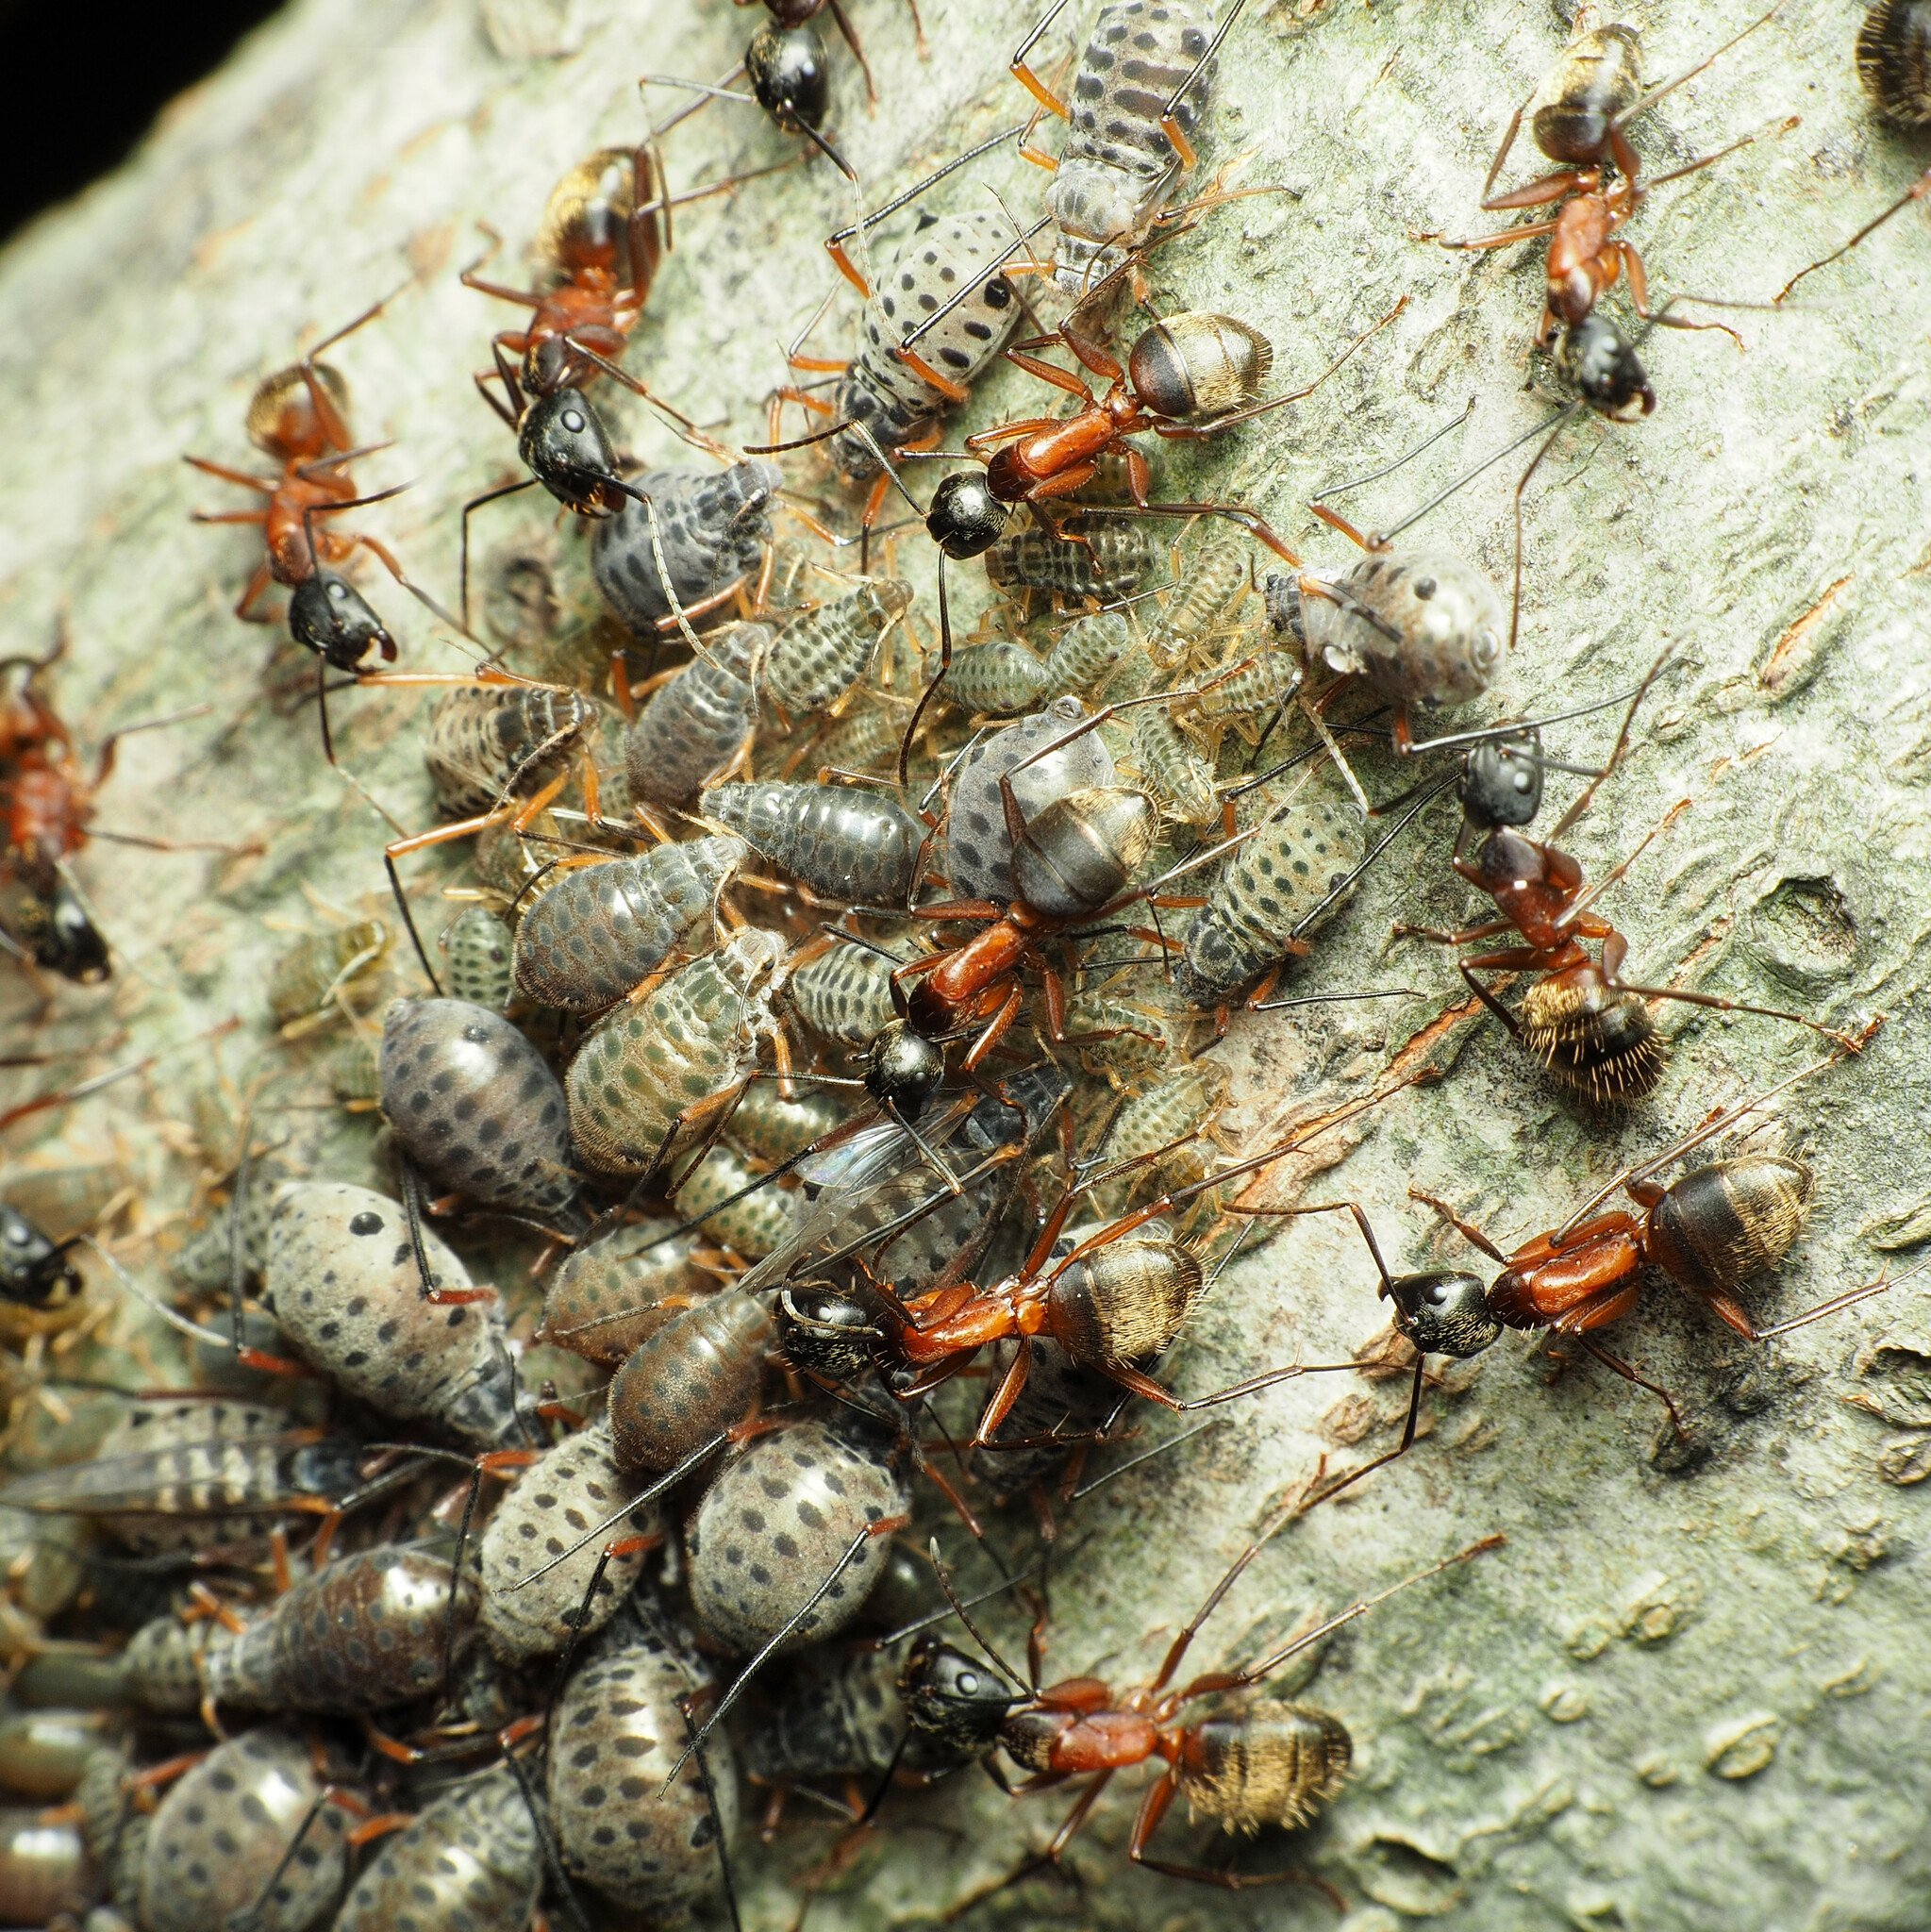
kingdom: Animalia
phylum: Arthropoda
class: Insecta
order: Hymenoptera
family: Formicidae
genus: Camponotus
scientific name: Camponotus chromaiodes
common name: Red carpenter ant
